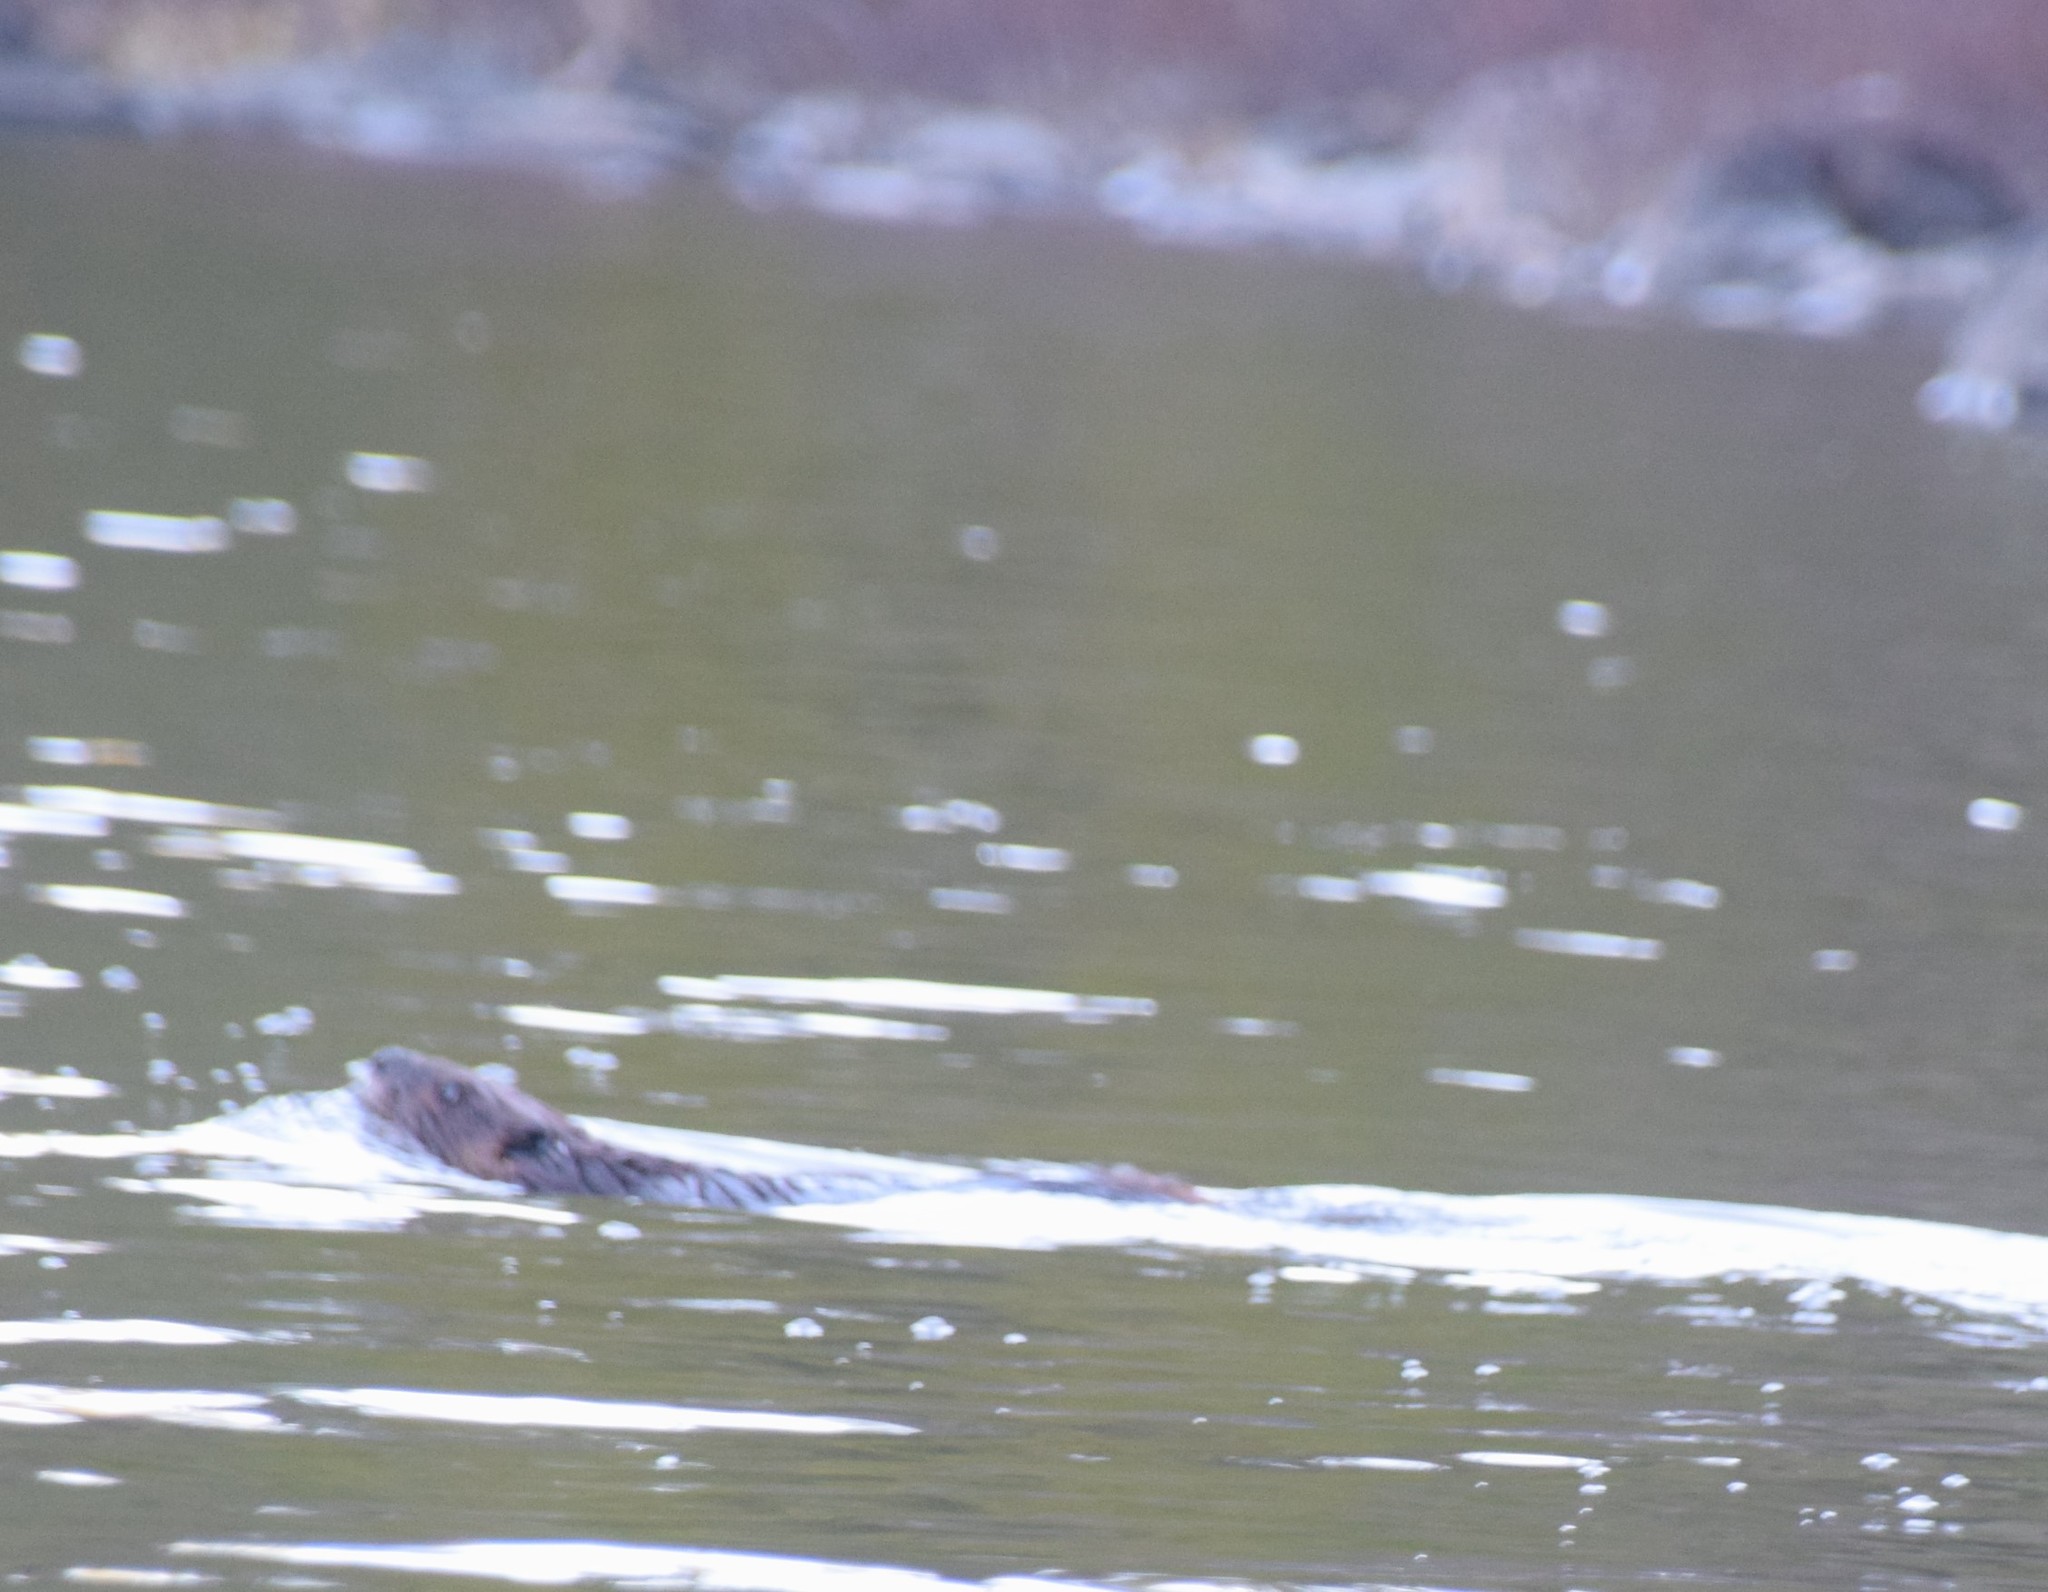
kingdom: Animalia
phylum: Chordata
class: Mammalia
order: Rodentia
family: Castoridae
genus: Castor
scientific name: Castor canadensis
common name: American beaver
